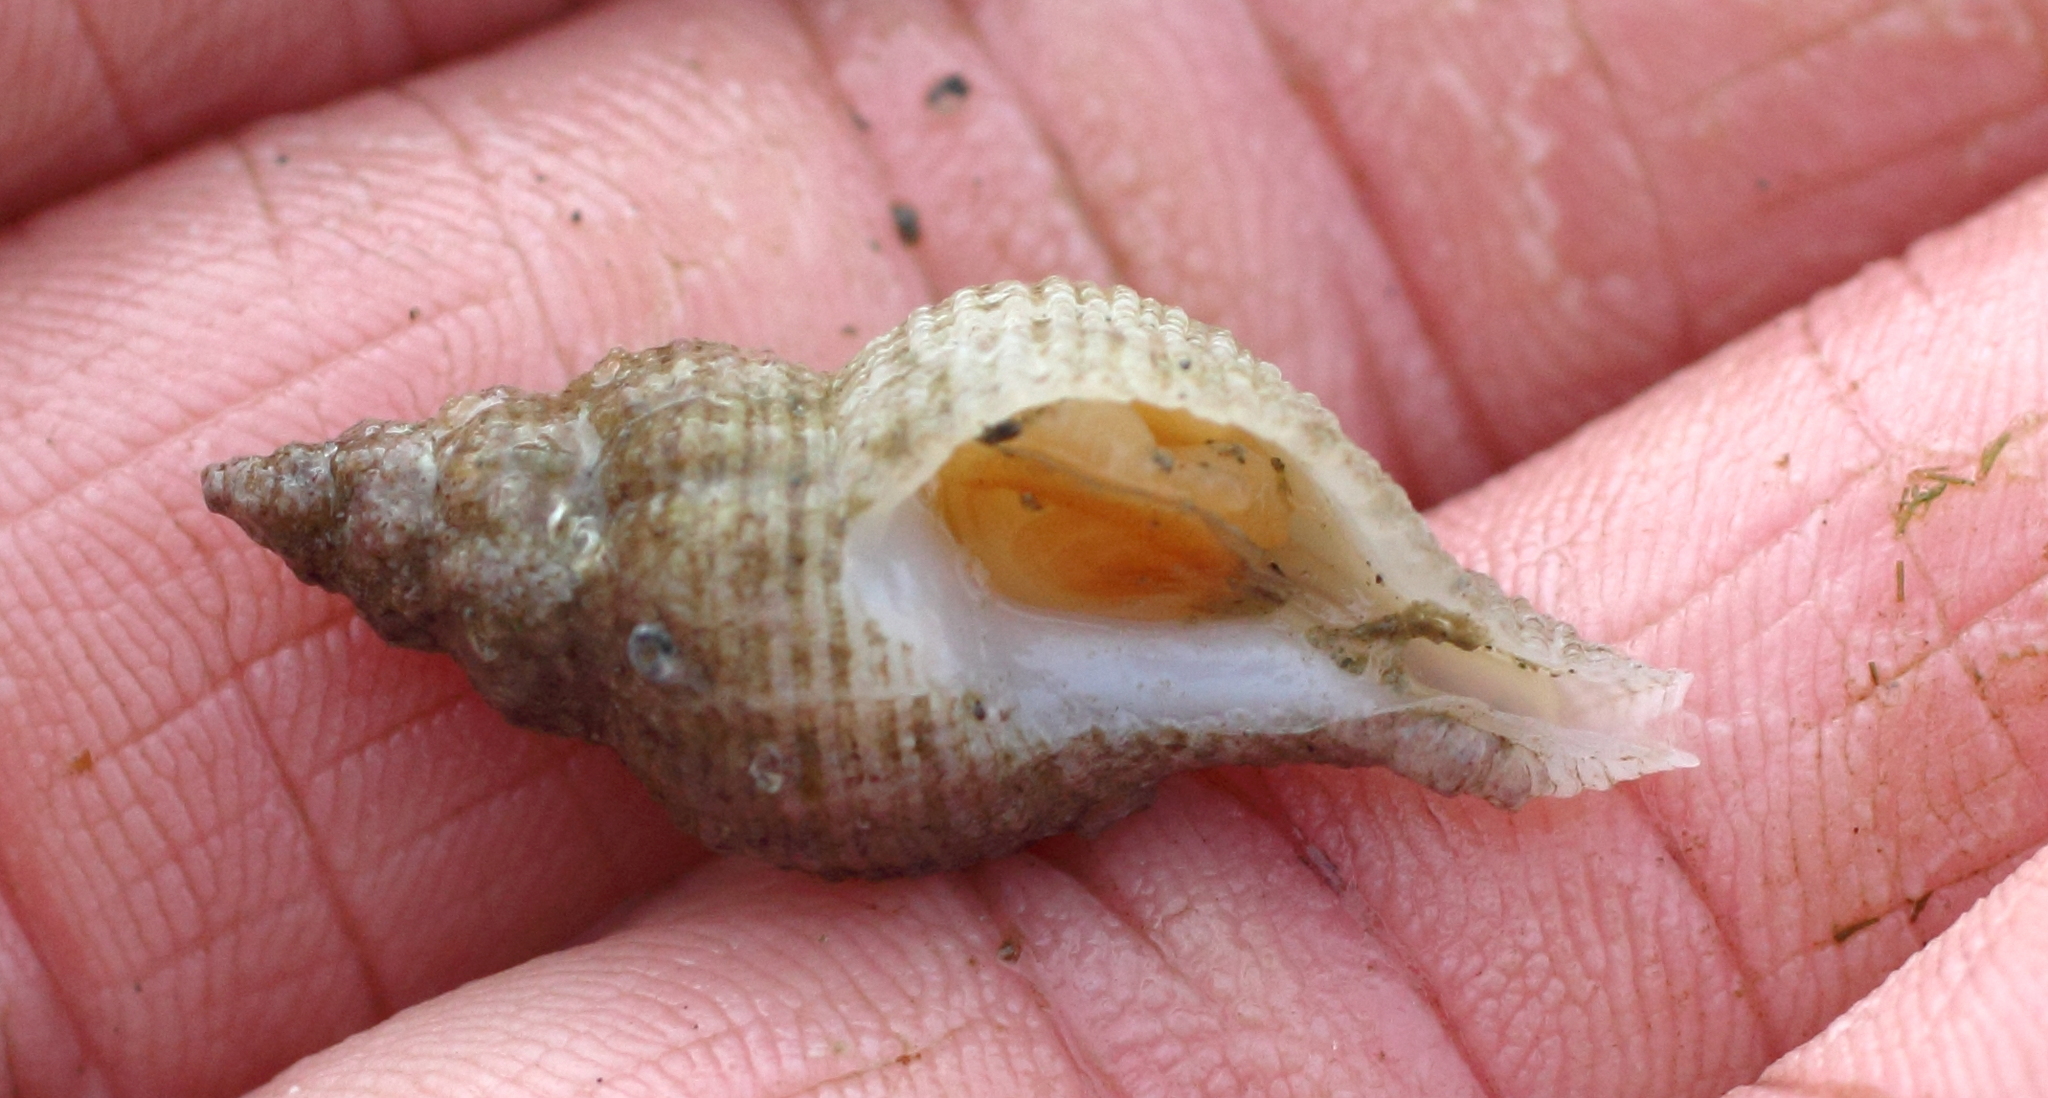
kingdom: Animalia
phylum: Mollusca
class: Gastropoda
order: Neogastropoda
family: Muricidae
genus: Scabrotrophon
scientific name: Scabrotrophon maltzani
